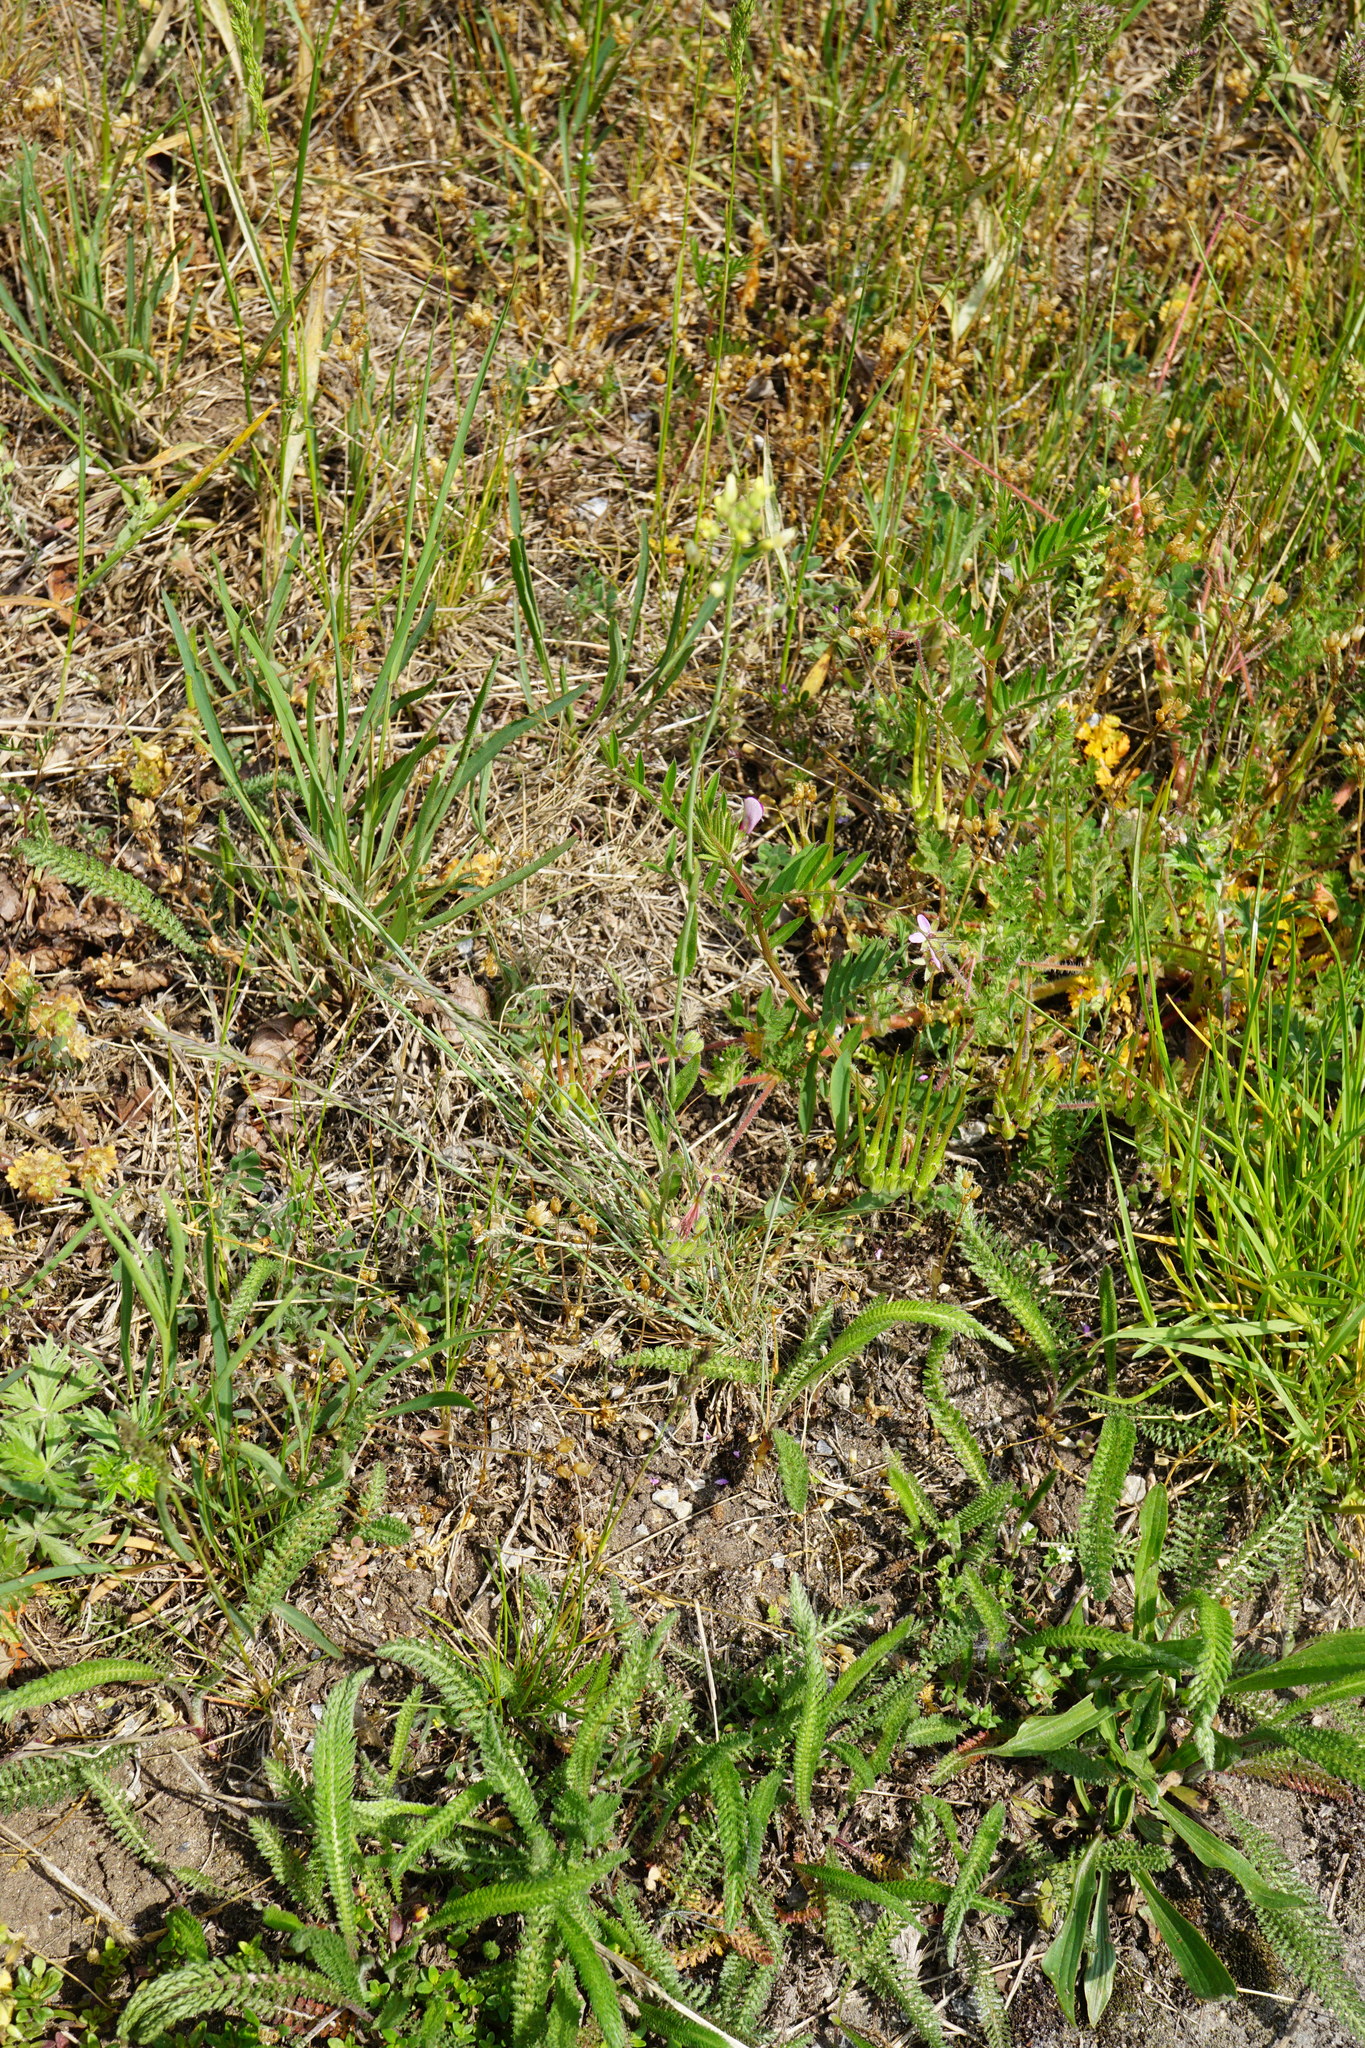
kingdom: Plantae
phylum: Tracheophyta
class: Magnoliopsida
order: Brassicales
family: Brassicaceae
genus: Camelina
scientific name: Camelina microcarpa
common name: Lesser gold-of-pleasure
